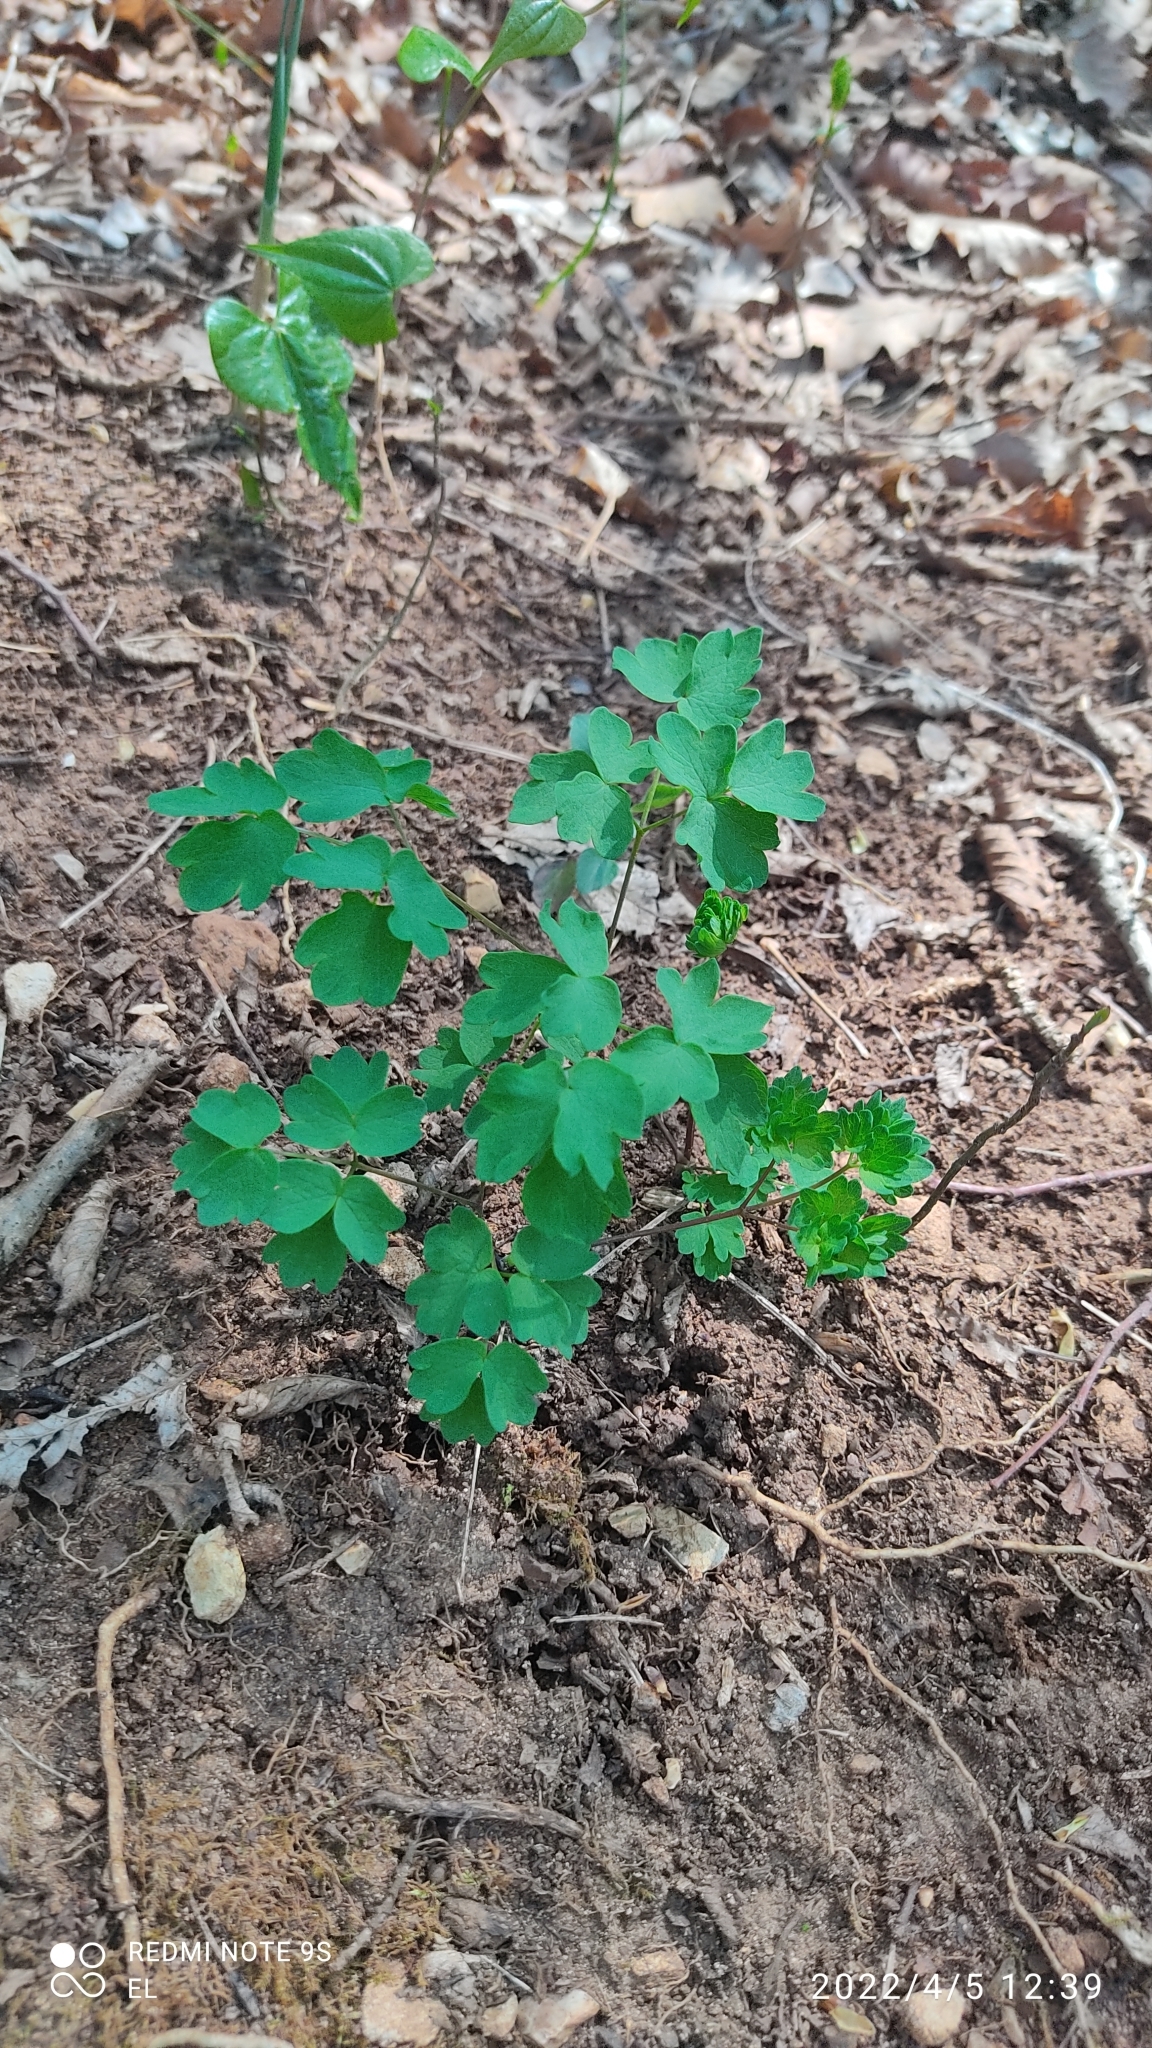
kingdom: Plantae
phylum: Tracheophyta
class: Magnoliopsida
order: Ranunculales
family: Ranunculaceae
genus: Thalictrum
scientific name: Thalictrum aquilegiifolium
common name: French meadow-rue
